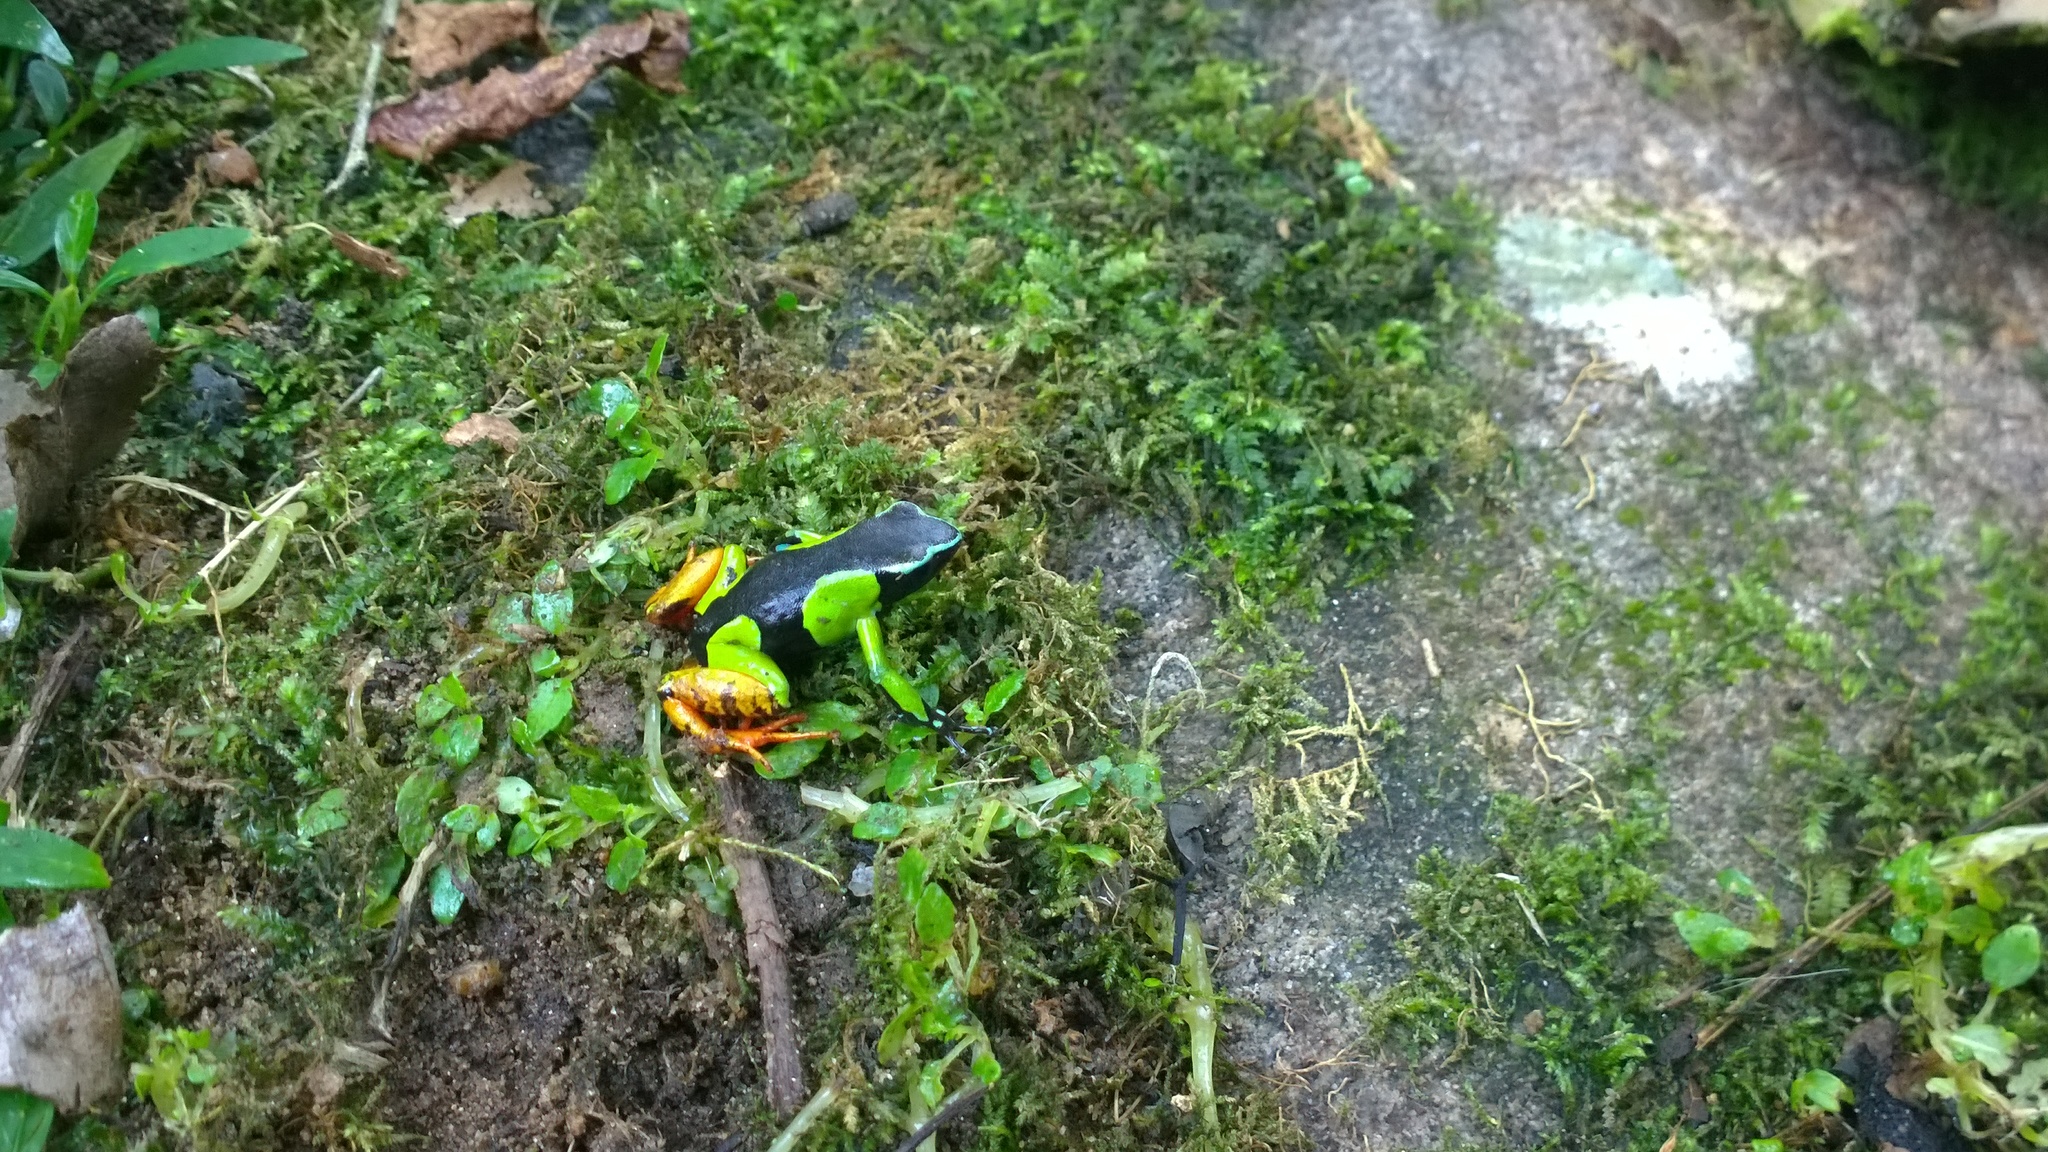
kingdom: Animalia
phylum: Chordata
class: Amphibia
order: Anura
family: Mantellidae
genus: Mantella
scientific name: Mantella baroni
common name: Baron's mantella
